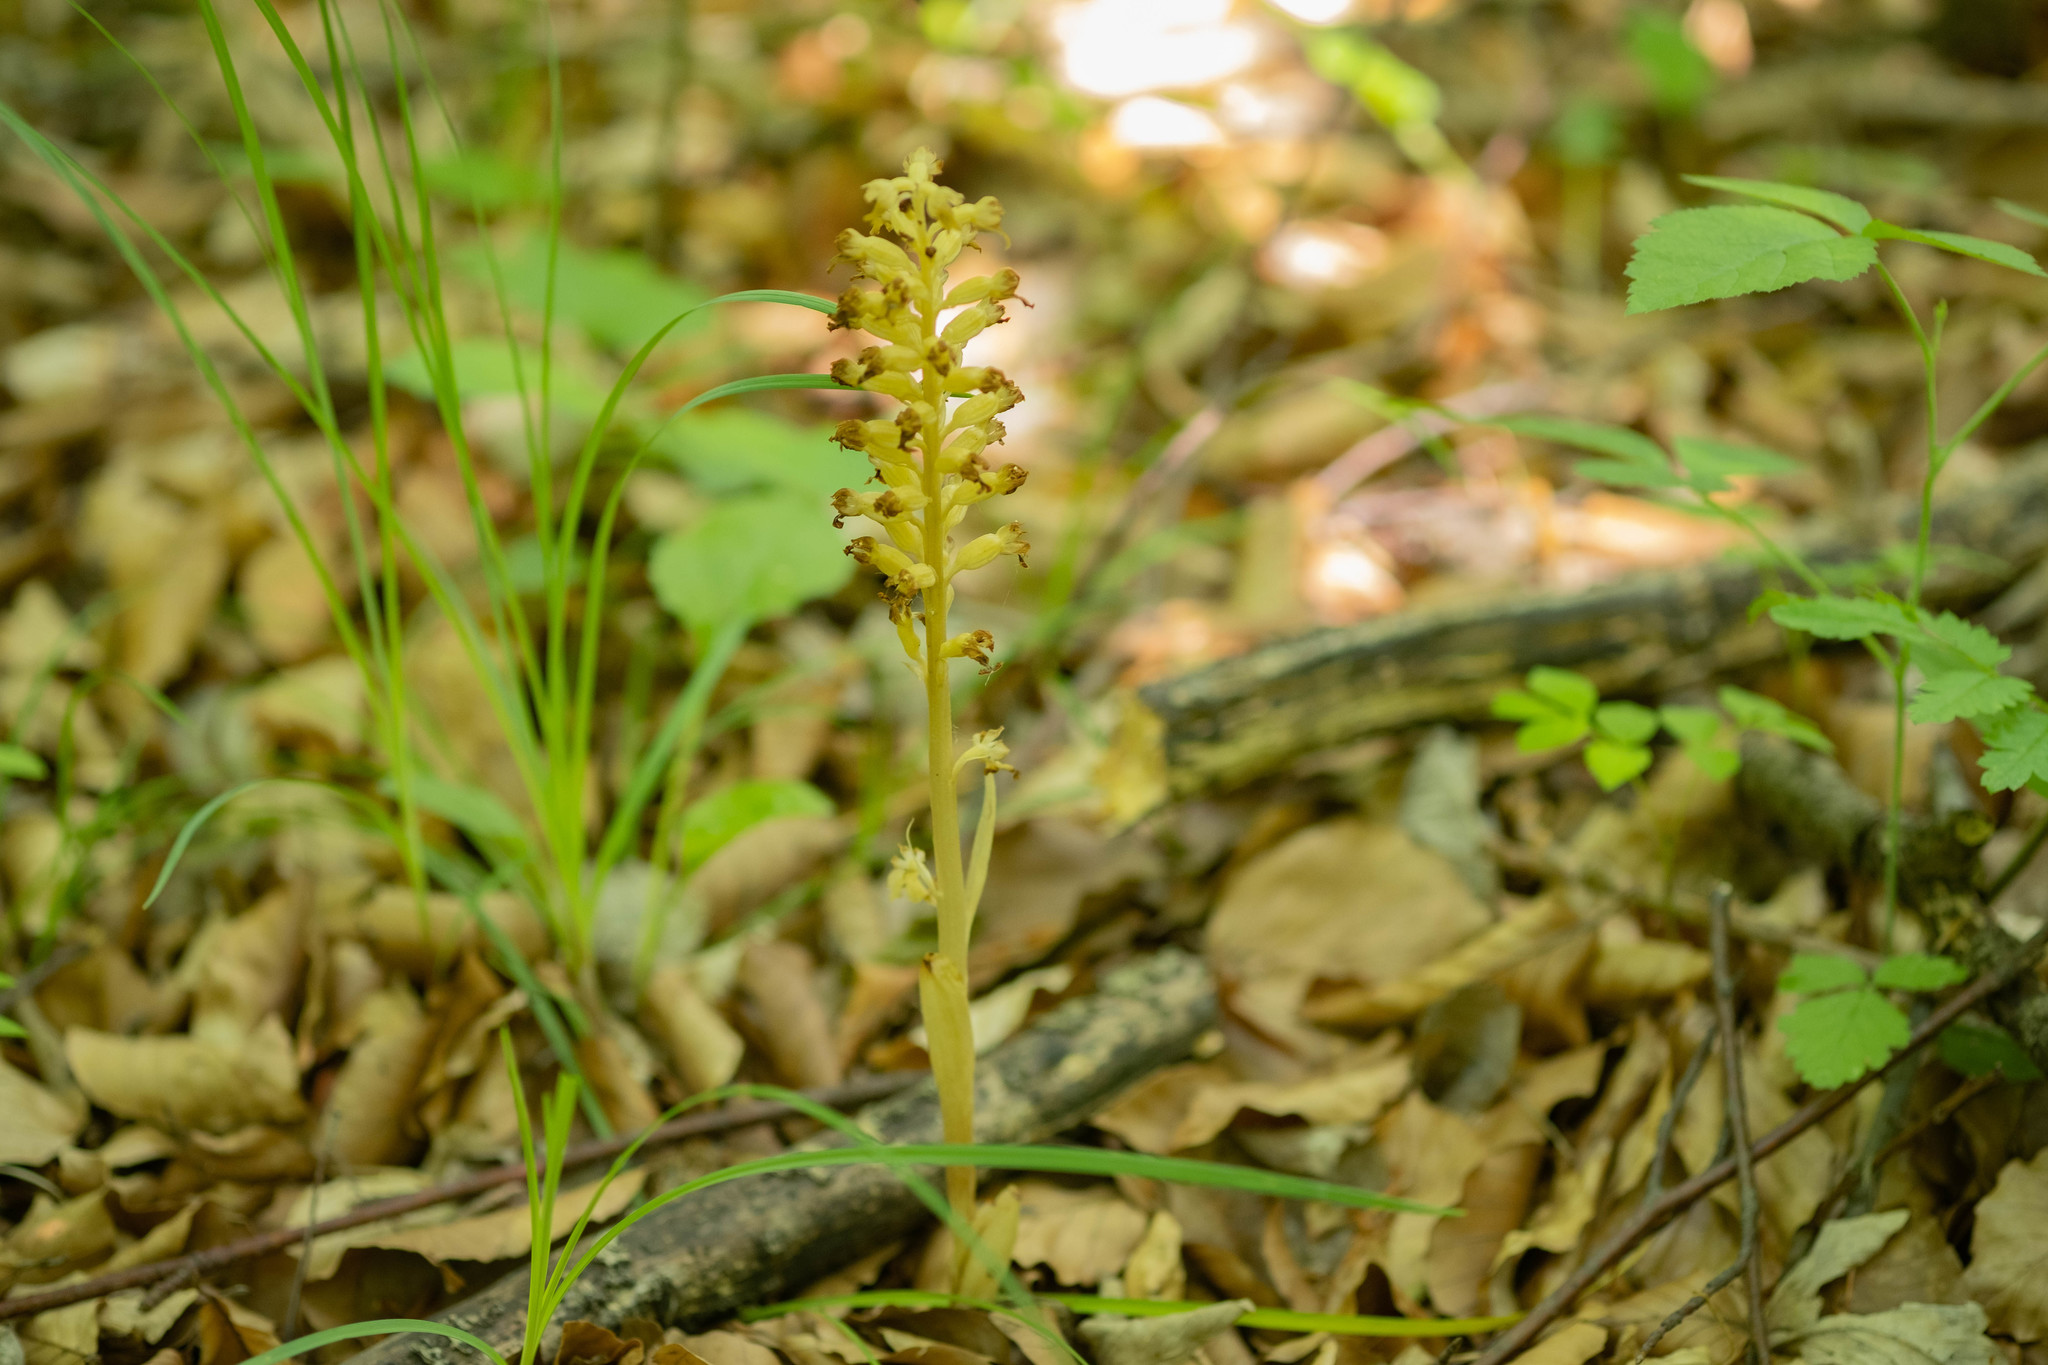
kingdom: Plantae
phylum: Tracheophyta
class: Liliopsida
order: Asparagales
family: Orchidaceae
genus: Neottia
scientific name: Neottia nidus-avis
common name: Bird's-nest orchid
